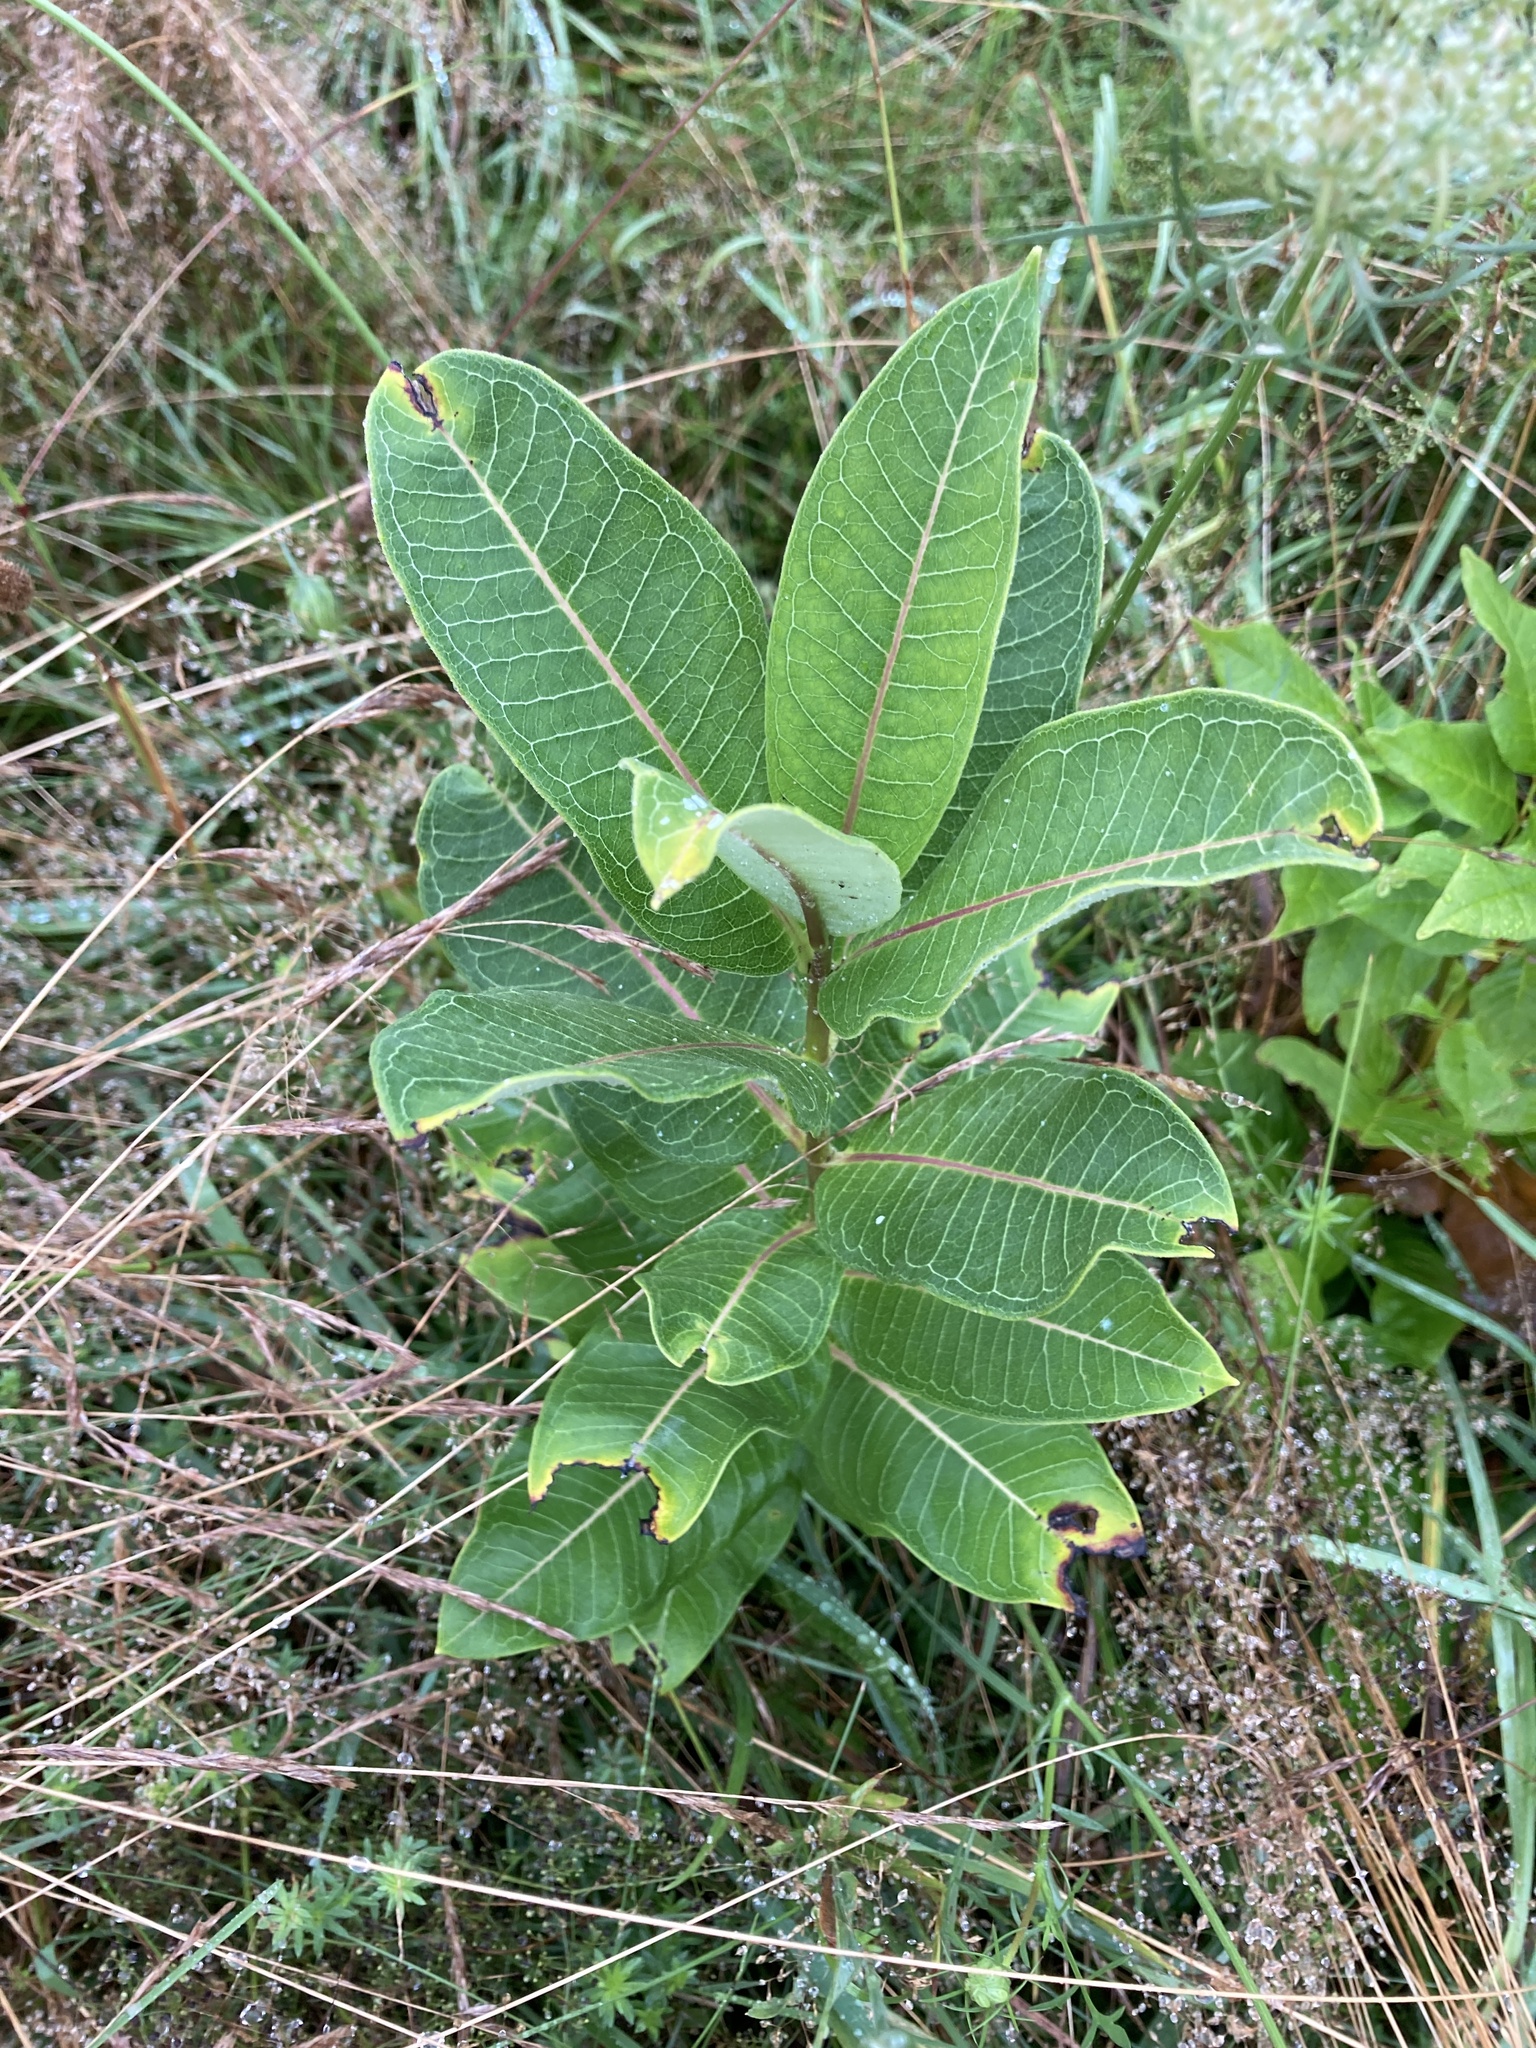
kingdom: Plantae
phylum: Tracheophyta
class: Magnoliopsida
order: Gentianales
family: Apocynaceae
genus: Asclepias
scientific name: Asclepias syriaca
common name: Common milkweed
